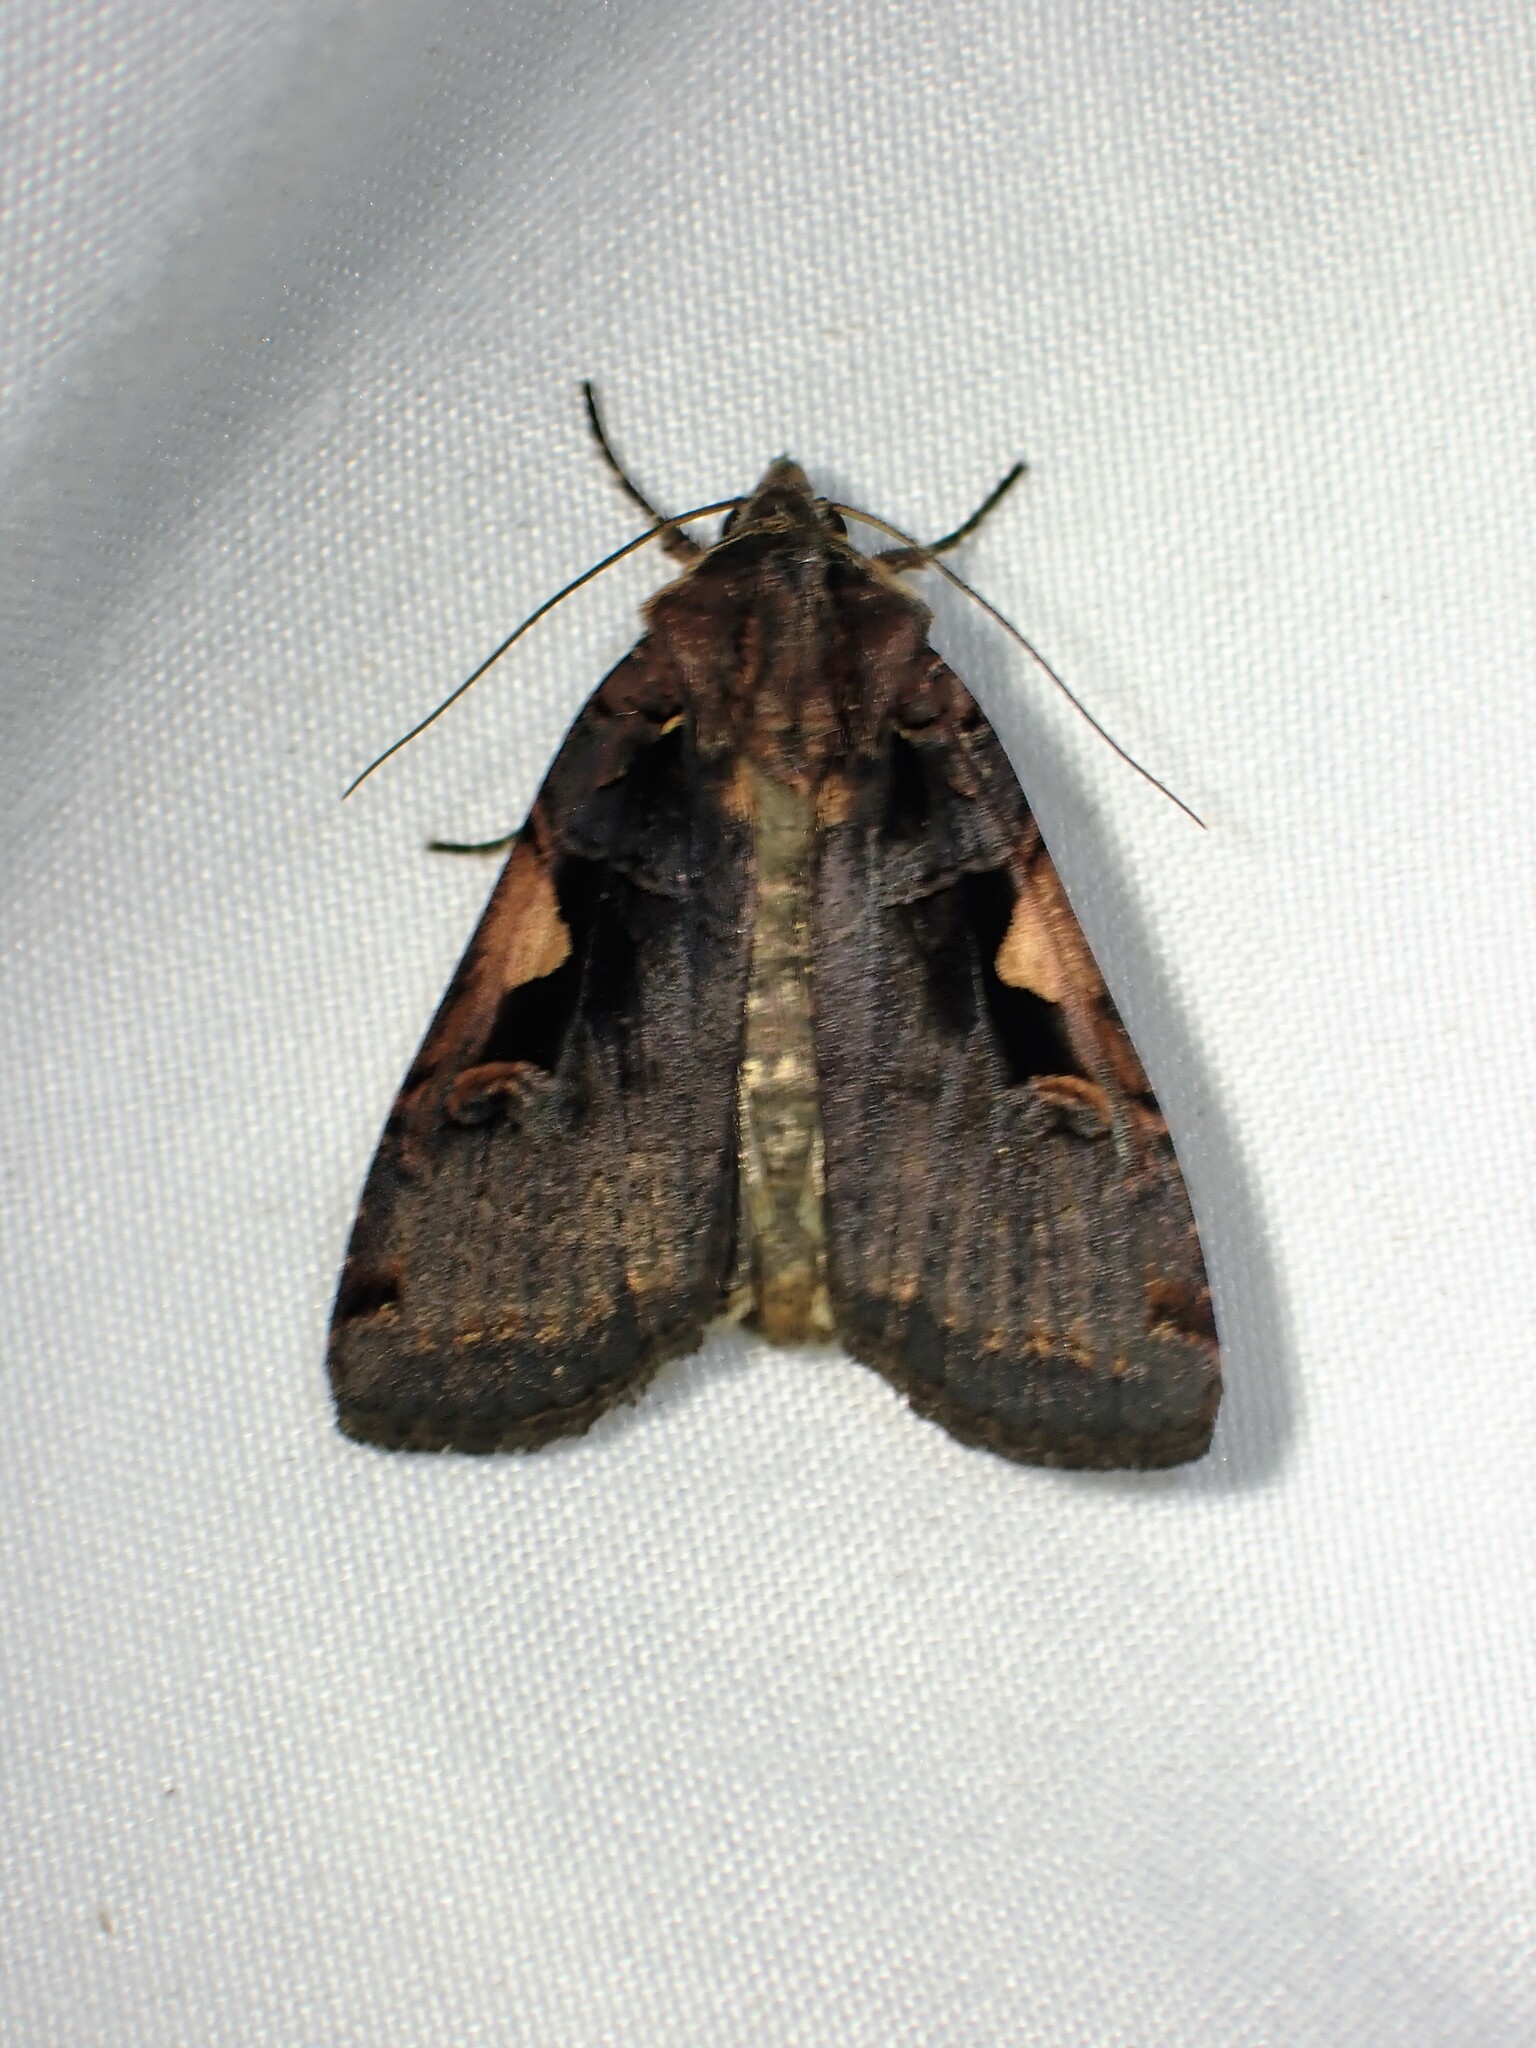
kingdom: Animalia
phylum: Arthropoda
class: Insecta
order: Lepidoptera
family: Noctuidae
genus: Xestia
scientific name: Xestia
